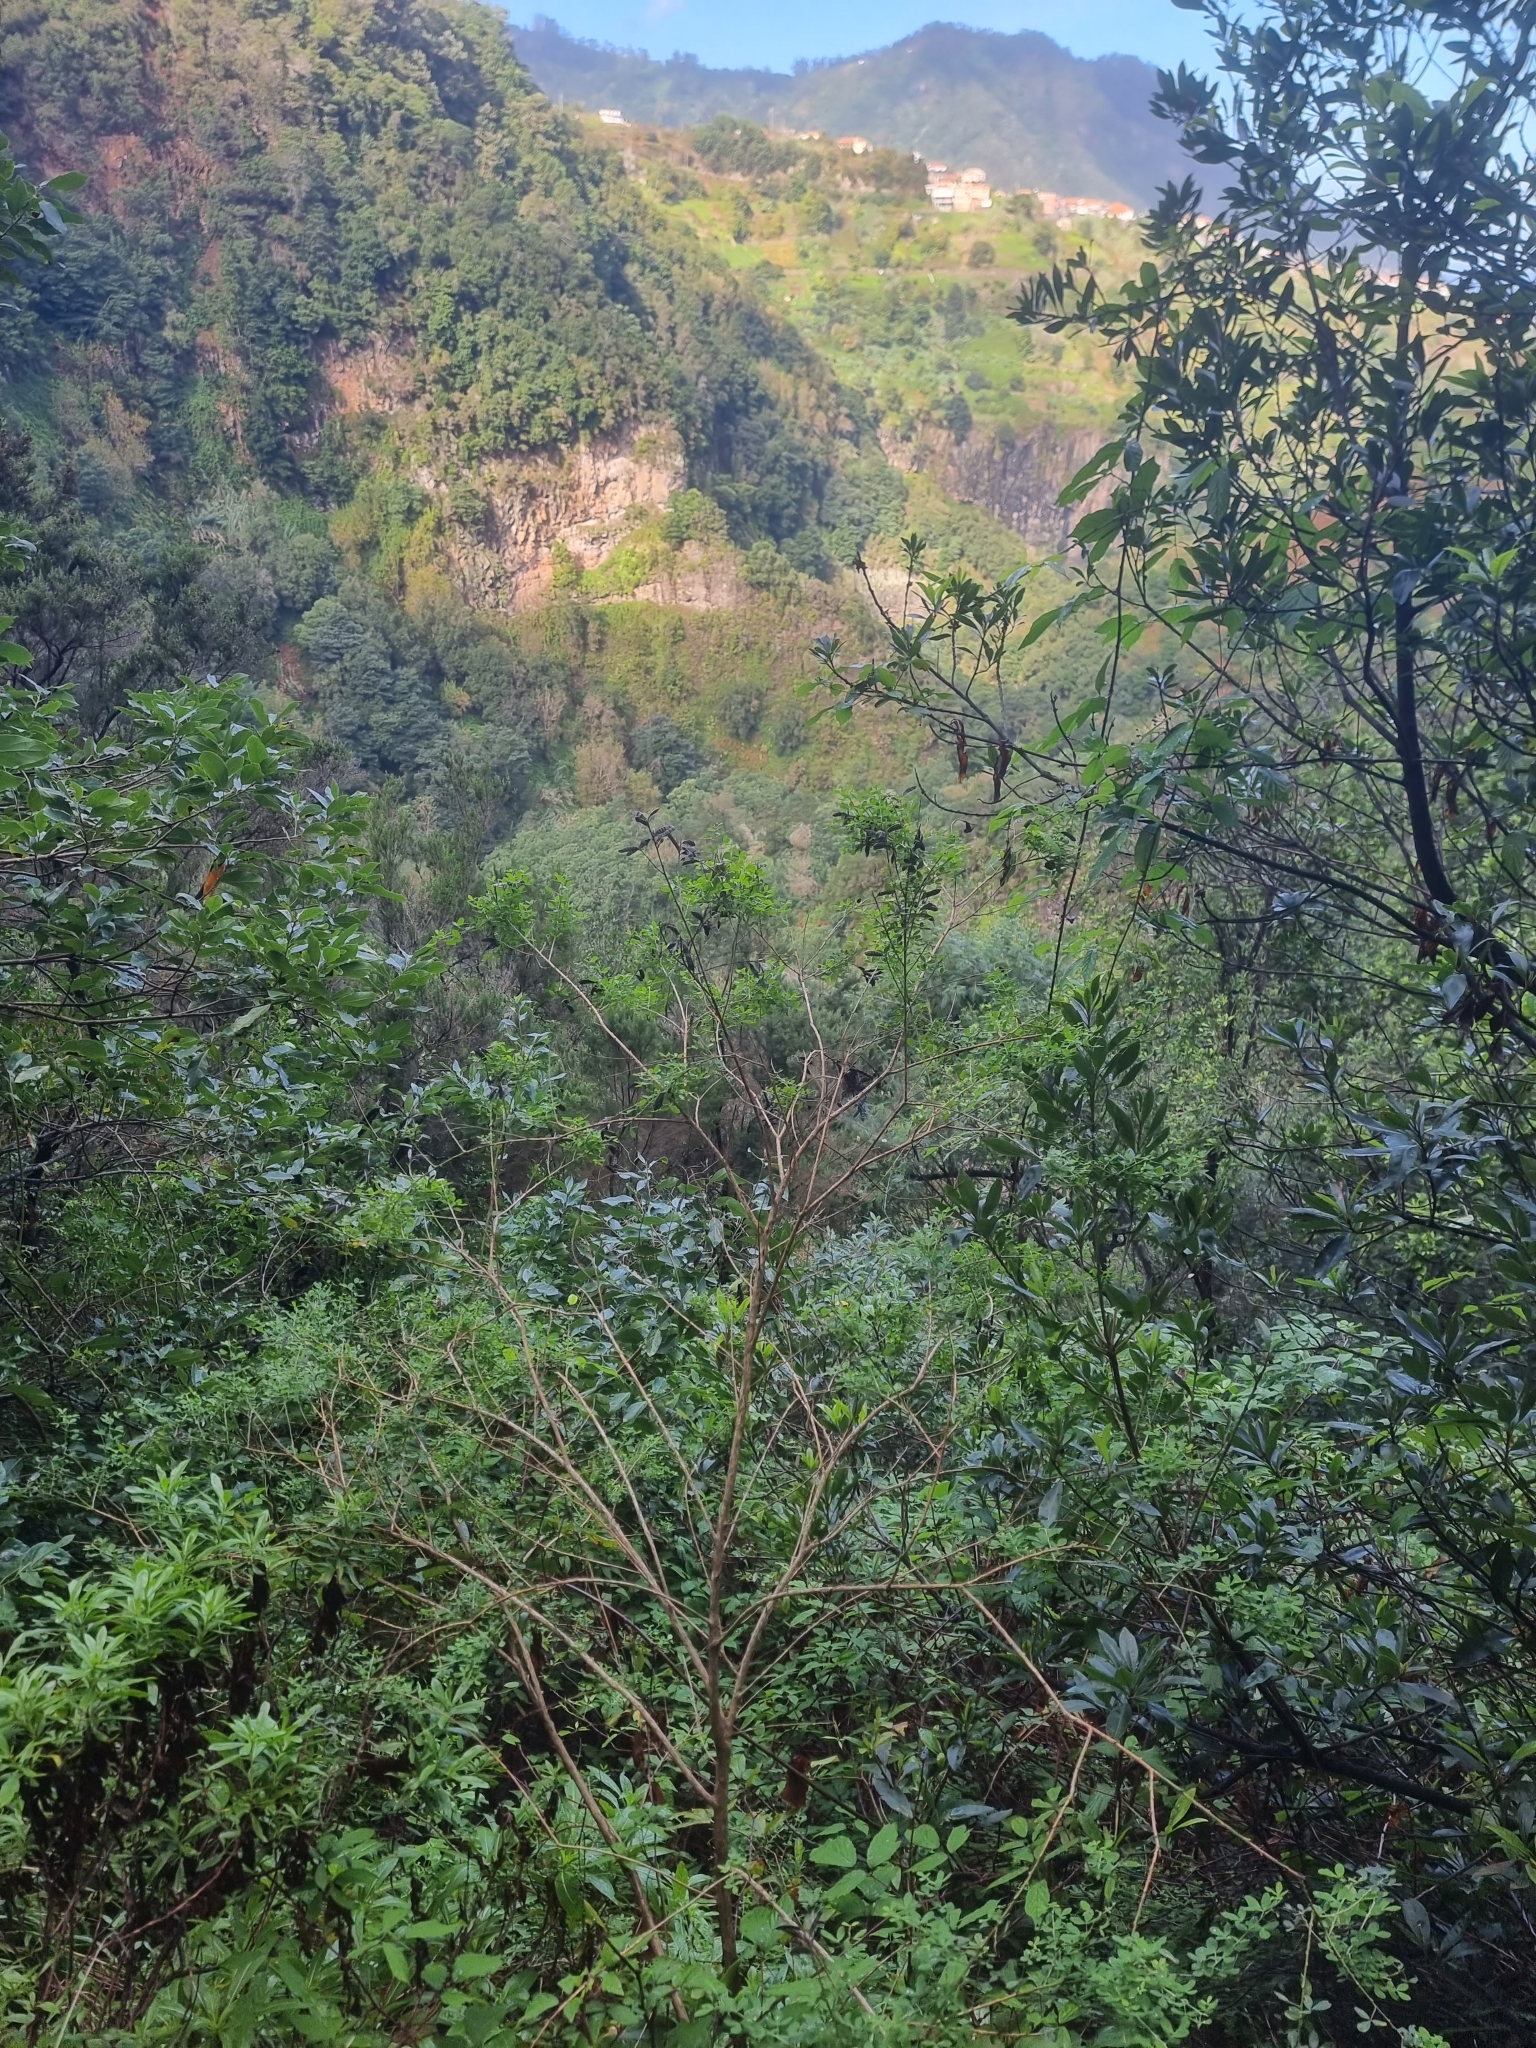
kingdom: Plantae
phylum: Tracheophyta
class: Magnoliopsida
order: Fabales
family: Fabaceae
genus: Genista
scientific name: Genista maderensis
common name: Madeira dyer's greenweed
